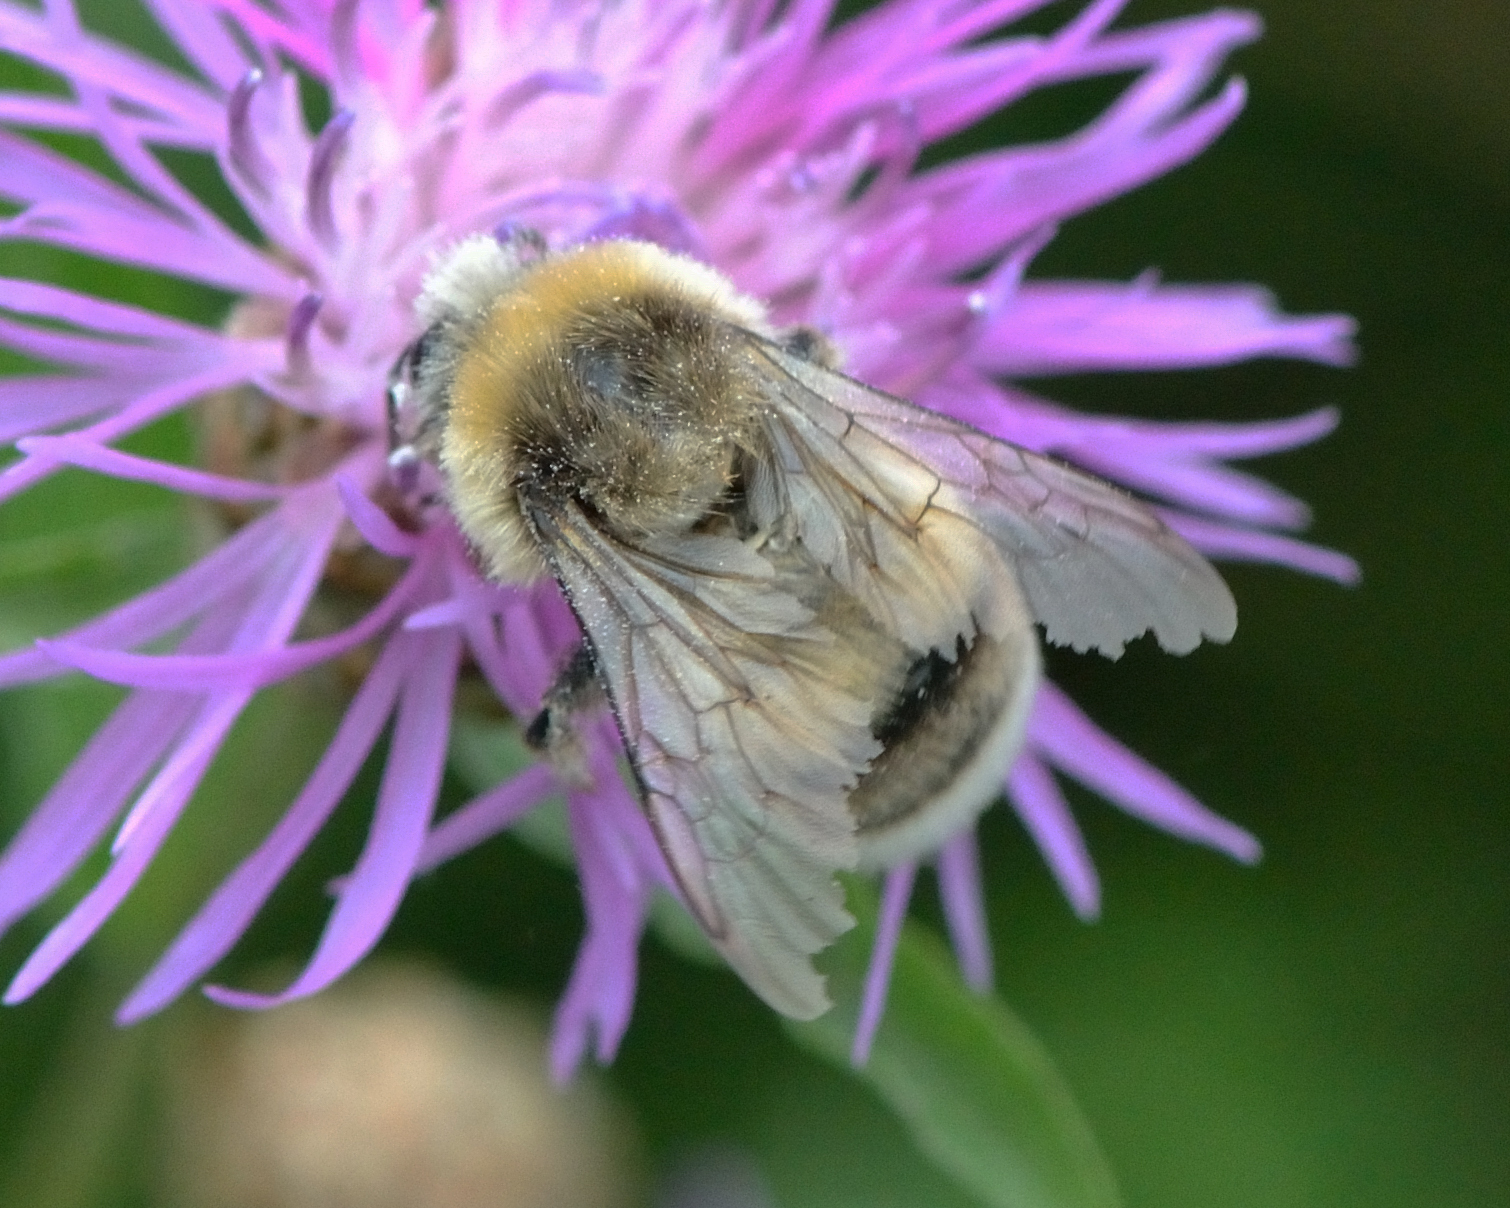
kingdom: Animalia
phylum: Arthropoda
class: Insecta
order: Hymenoptera
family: Apidae
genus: Bombus
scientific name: Bombus lucorum
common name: White-tailed bumblebee
